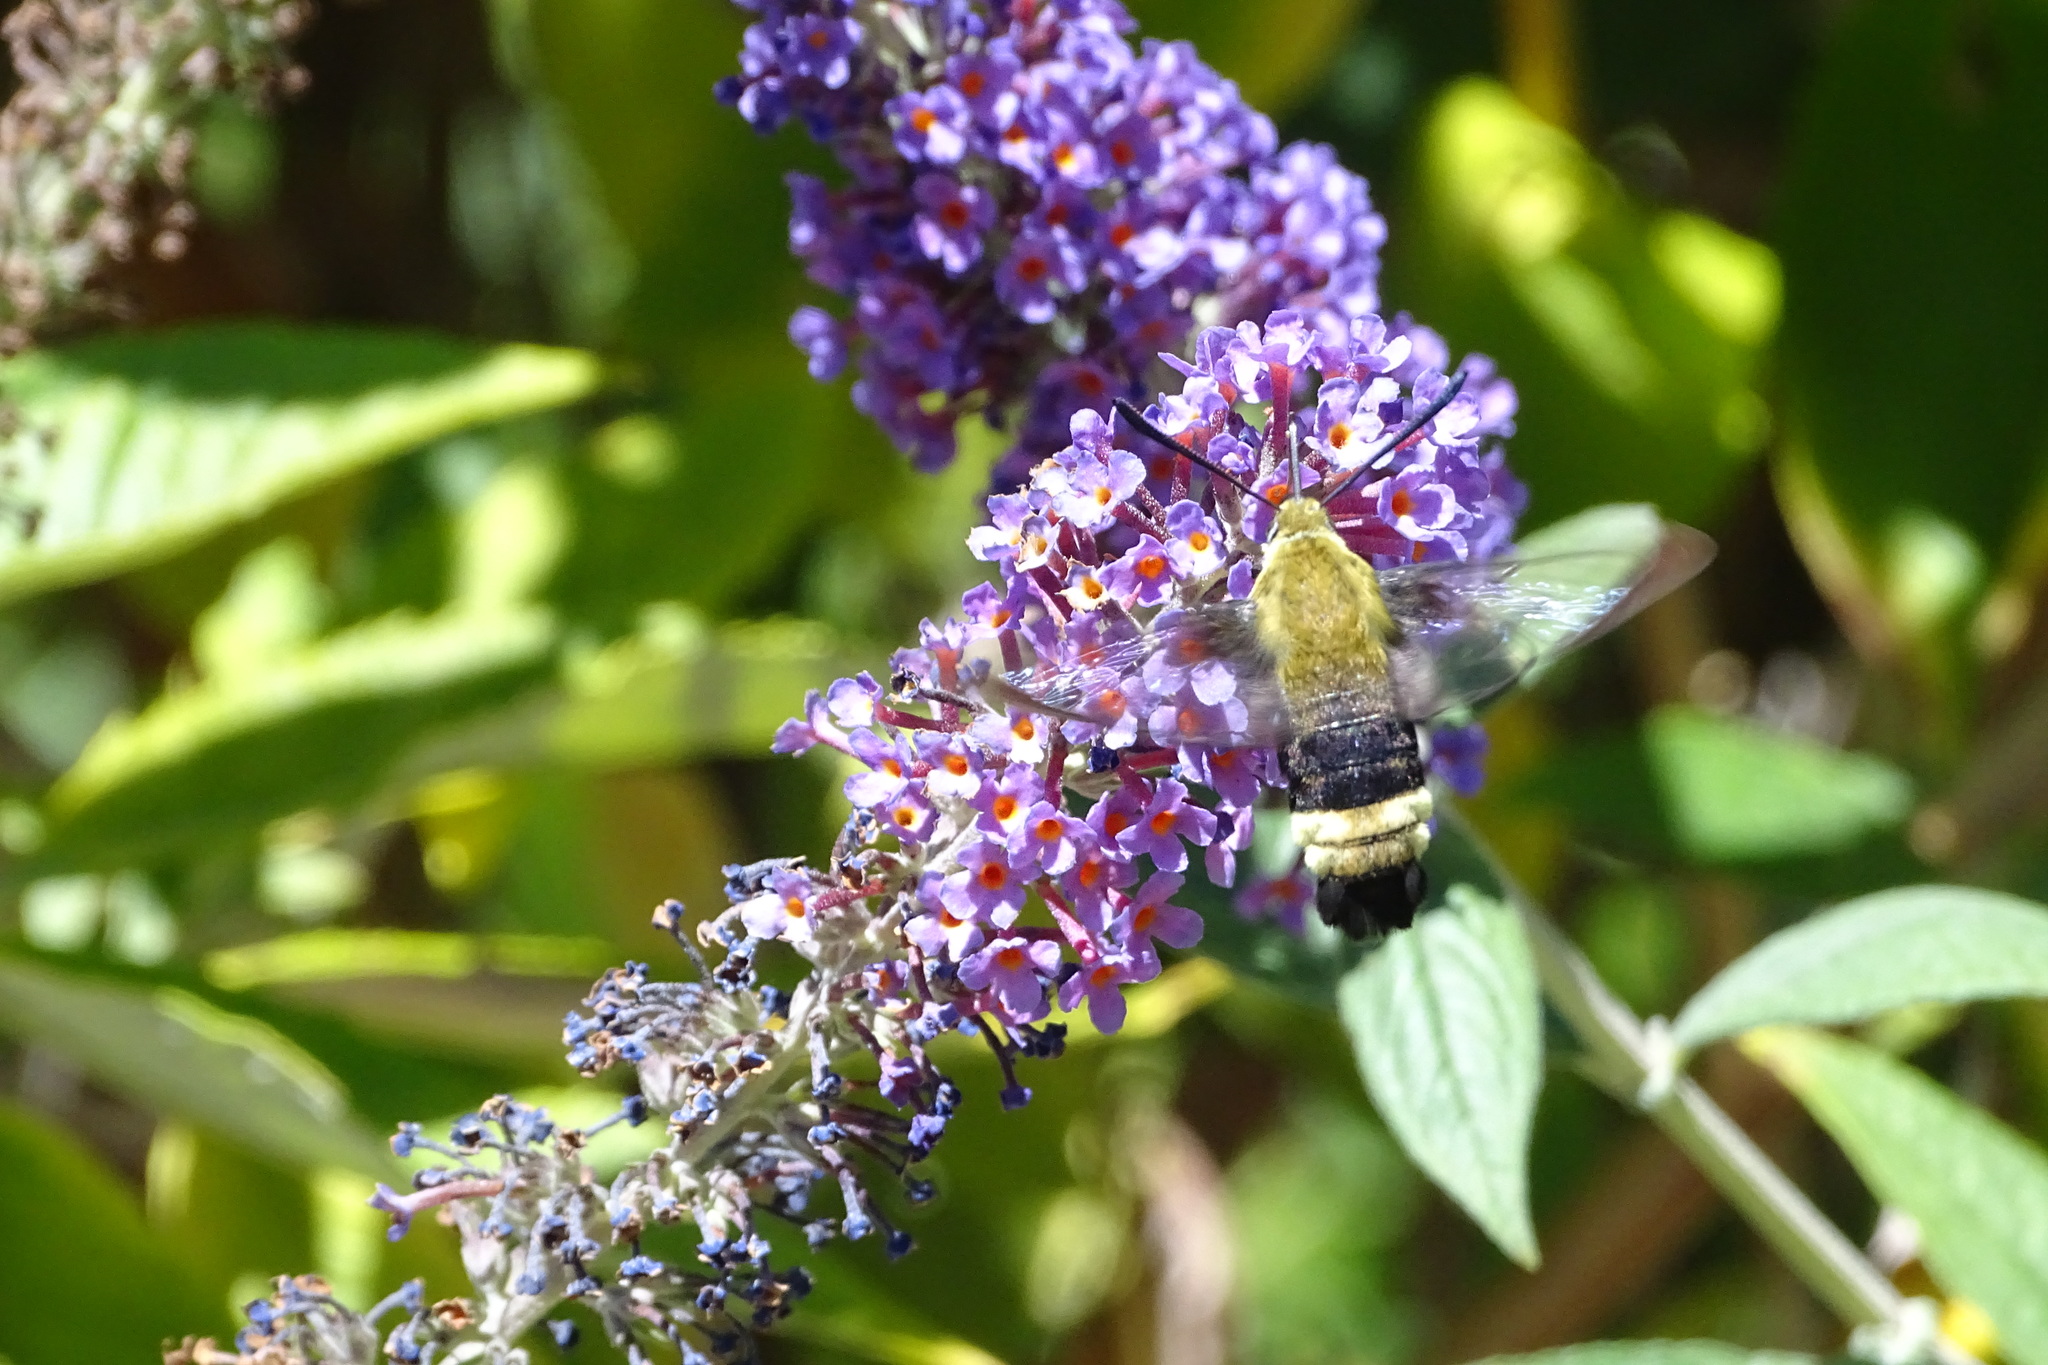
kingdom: Animalia
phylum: Arthropoda
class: Insecta
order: Lepidoptera
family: Sphingidae
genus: Hemaris
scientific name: Hemaris thetis
